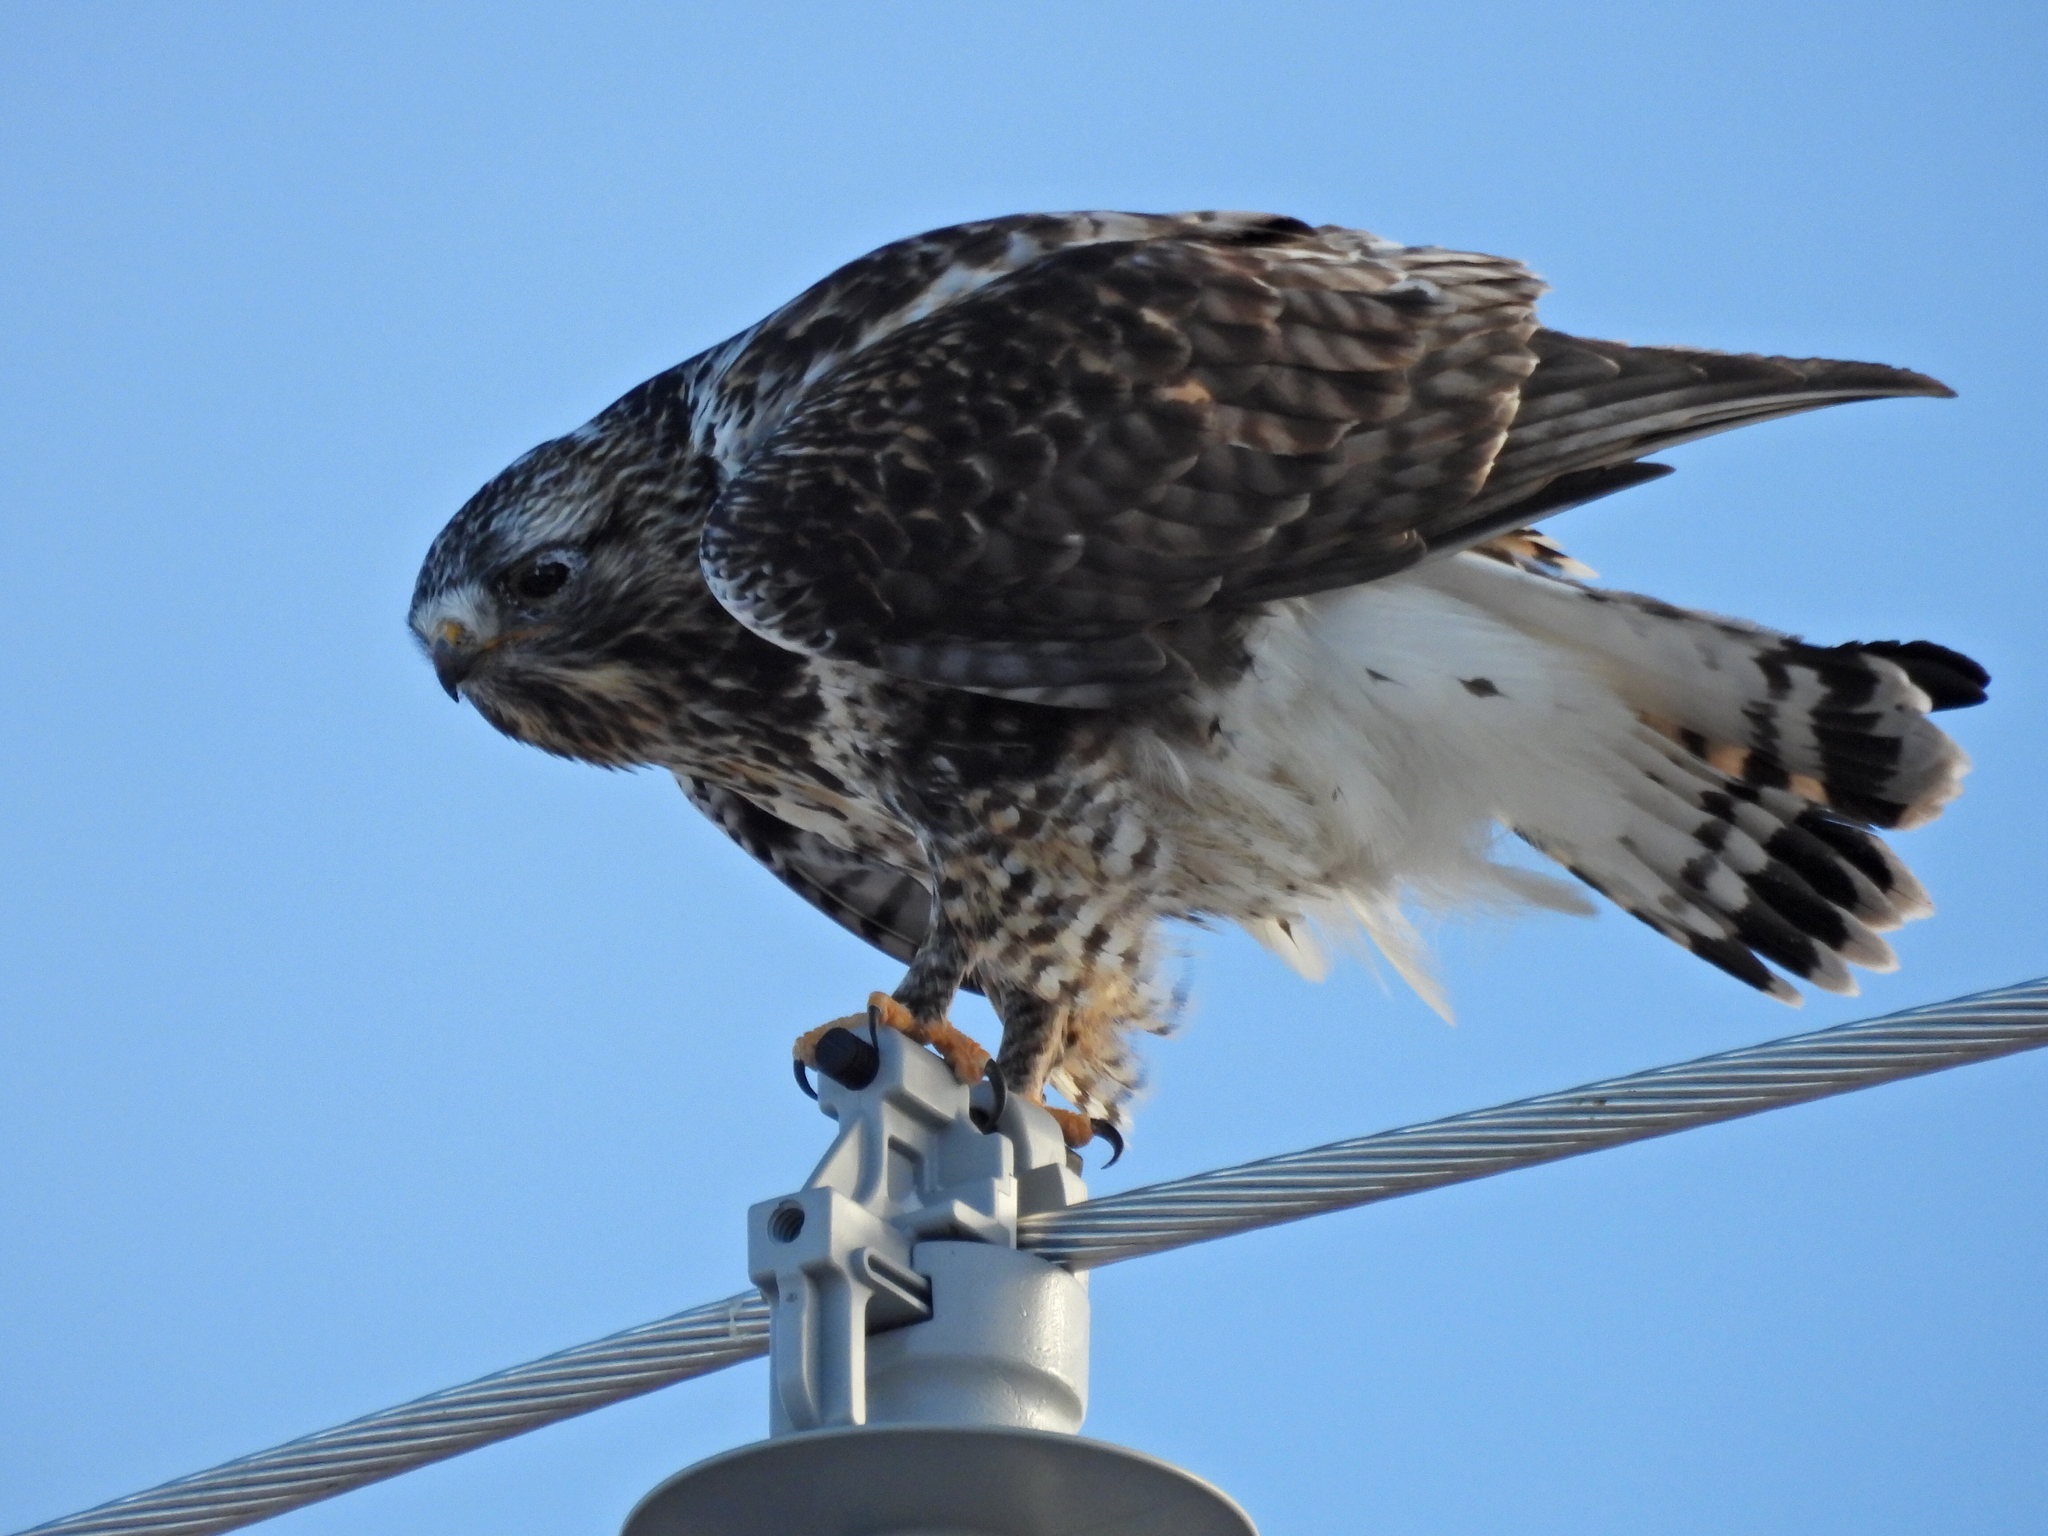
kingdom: Animalia
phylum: Chordata
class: Aves
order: Accipitriformes
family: Accipitridae
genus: Buteo
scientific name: Buteo lagopus
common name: Rough-legged buzzard
